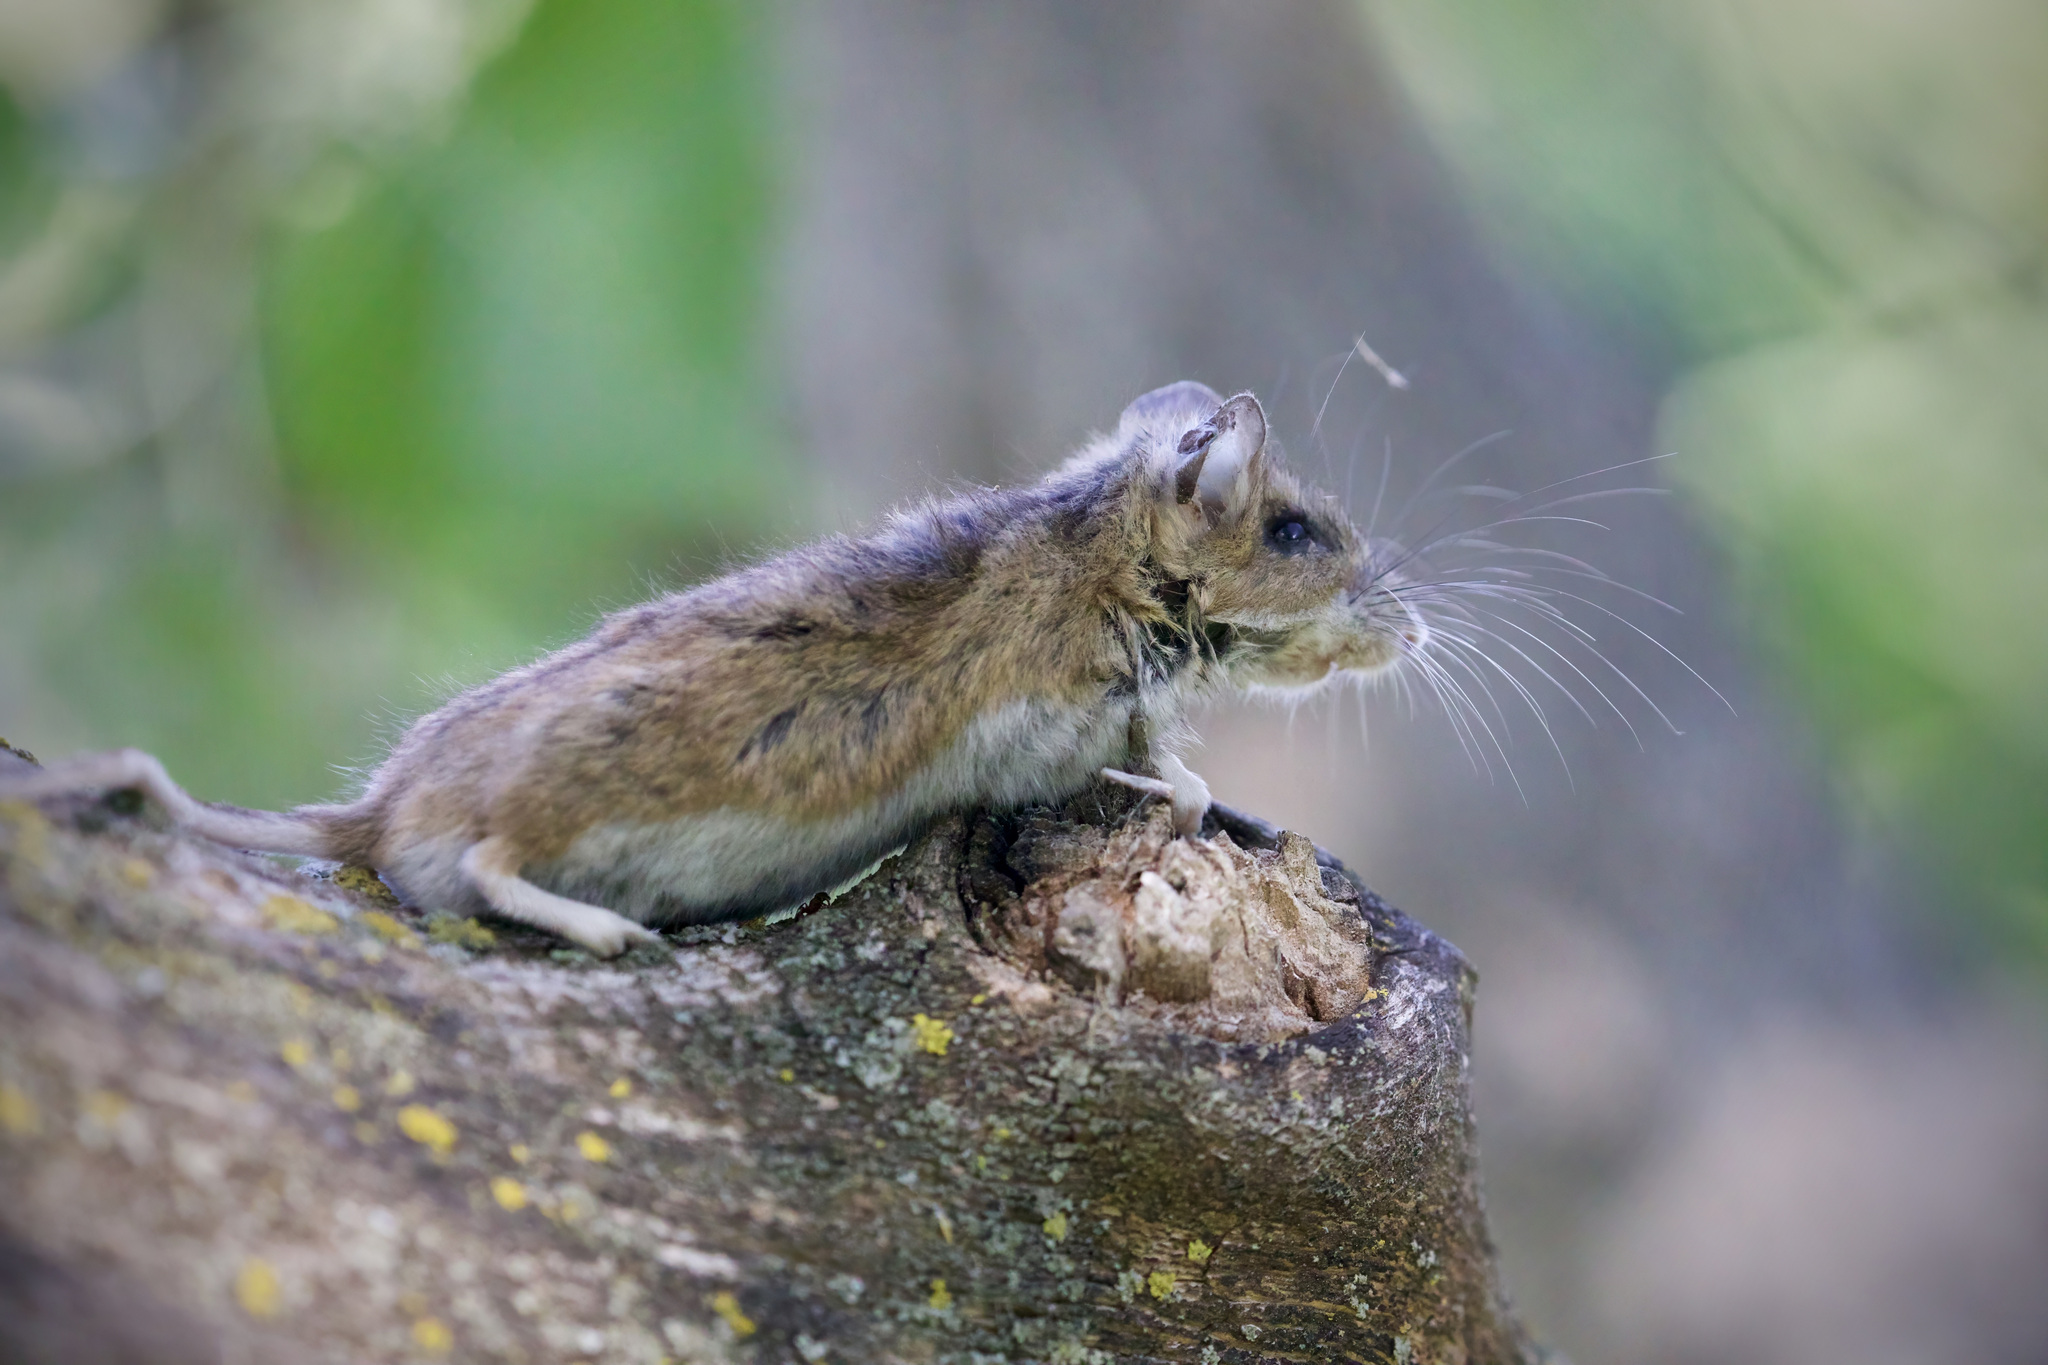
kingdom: Animalia
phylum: Chordata
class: Mammalia
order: Rodentia
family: Cricetidae
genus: Peromyscus
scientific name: Peromyscus maniculatus
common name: Deer mouse
